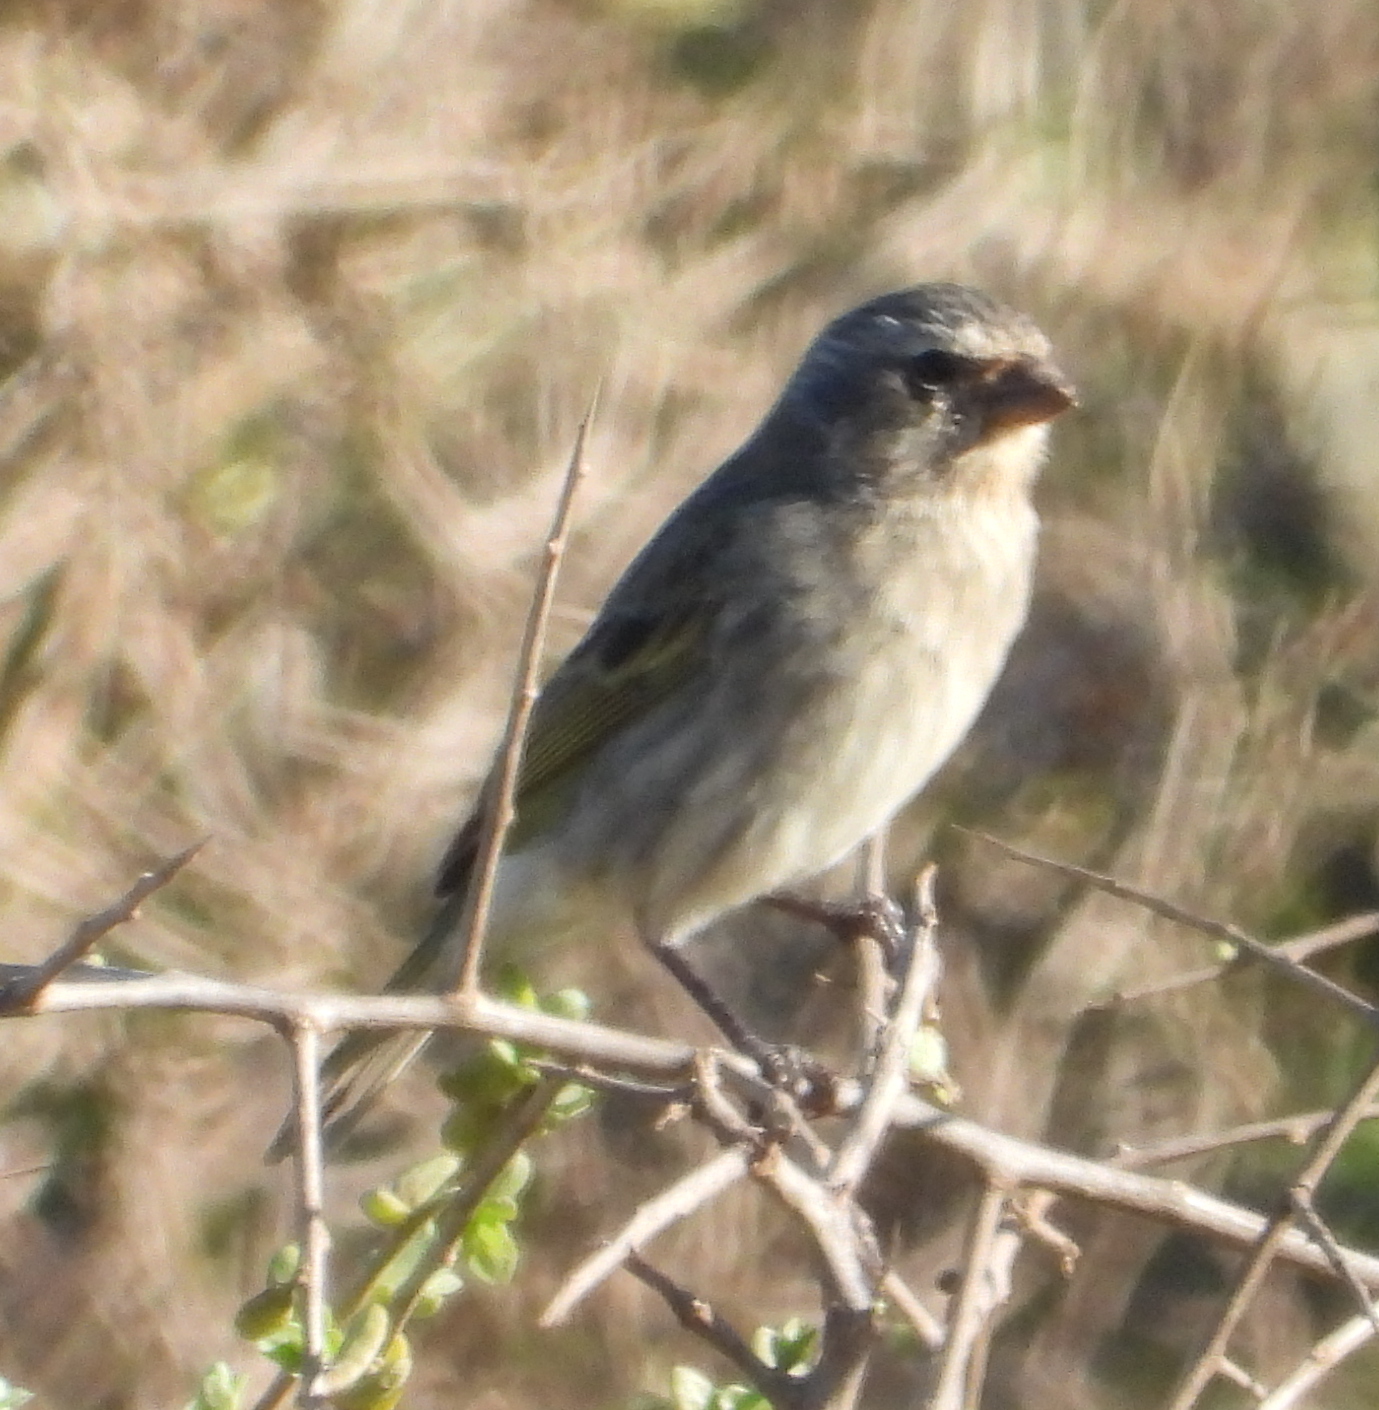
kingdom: Animalia
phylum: Chordata
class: Aves
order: Passeriformes
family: Fringillidae
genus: Crithagra
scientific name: Crithagra flaviventris
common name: Yellow canary
